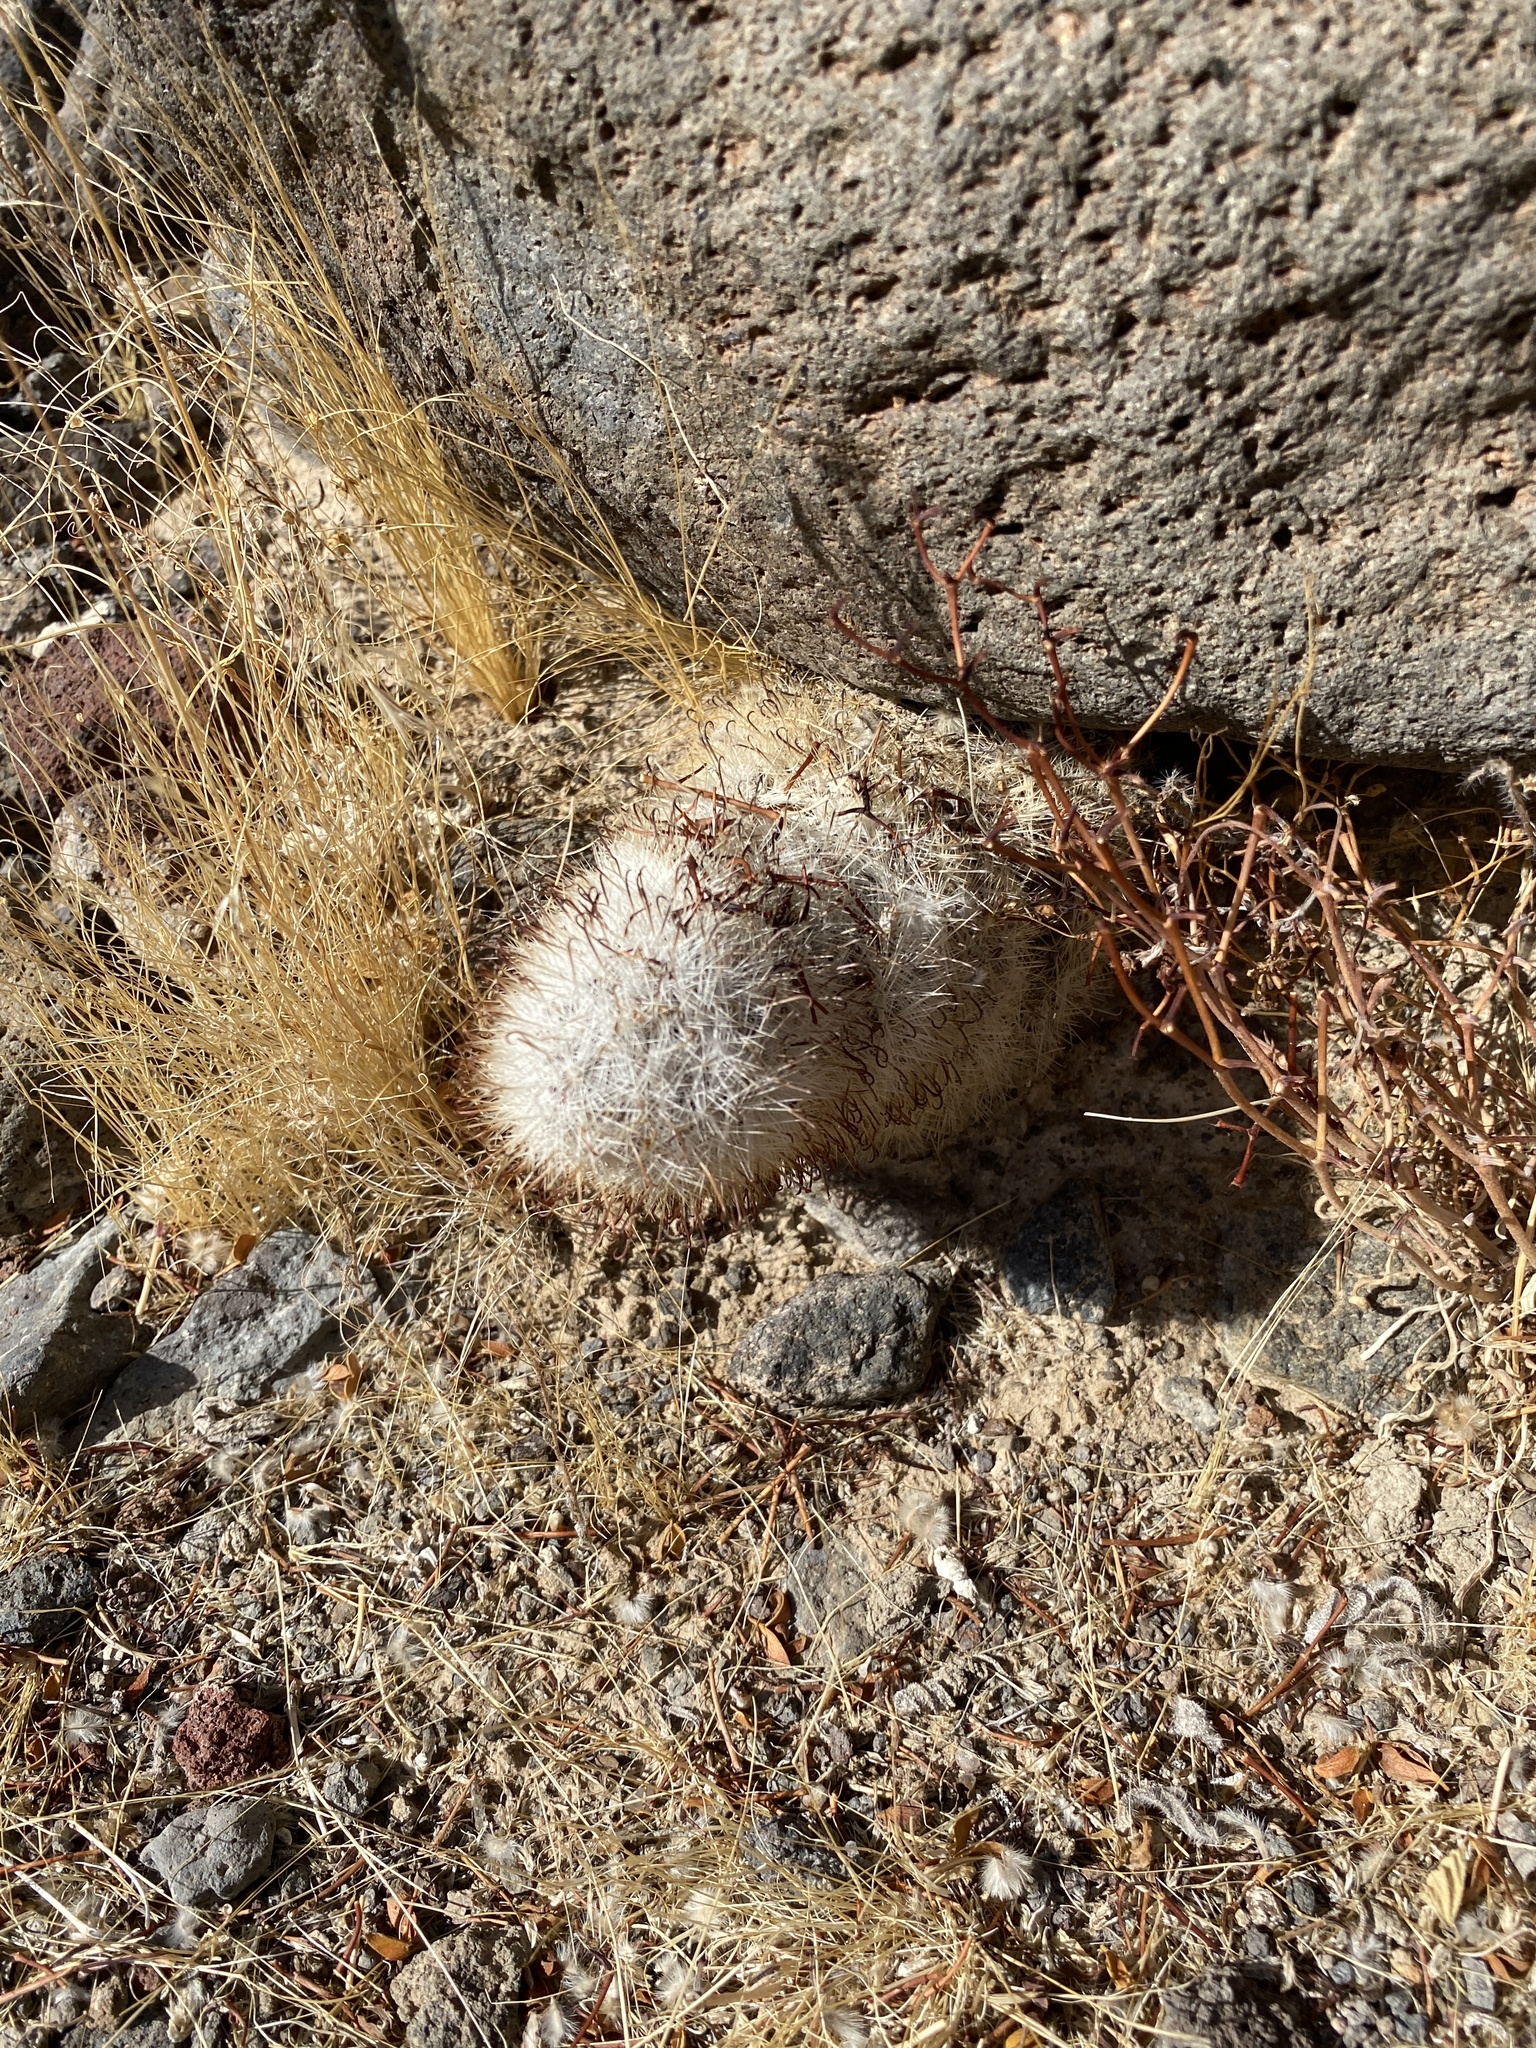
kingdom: Plantae
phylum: Tracheophyta
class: Magnoliopsida
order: Caryophyllales
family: Cactaceae
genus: Cochemiea
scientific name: Cochemiea tetrancistra
